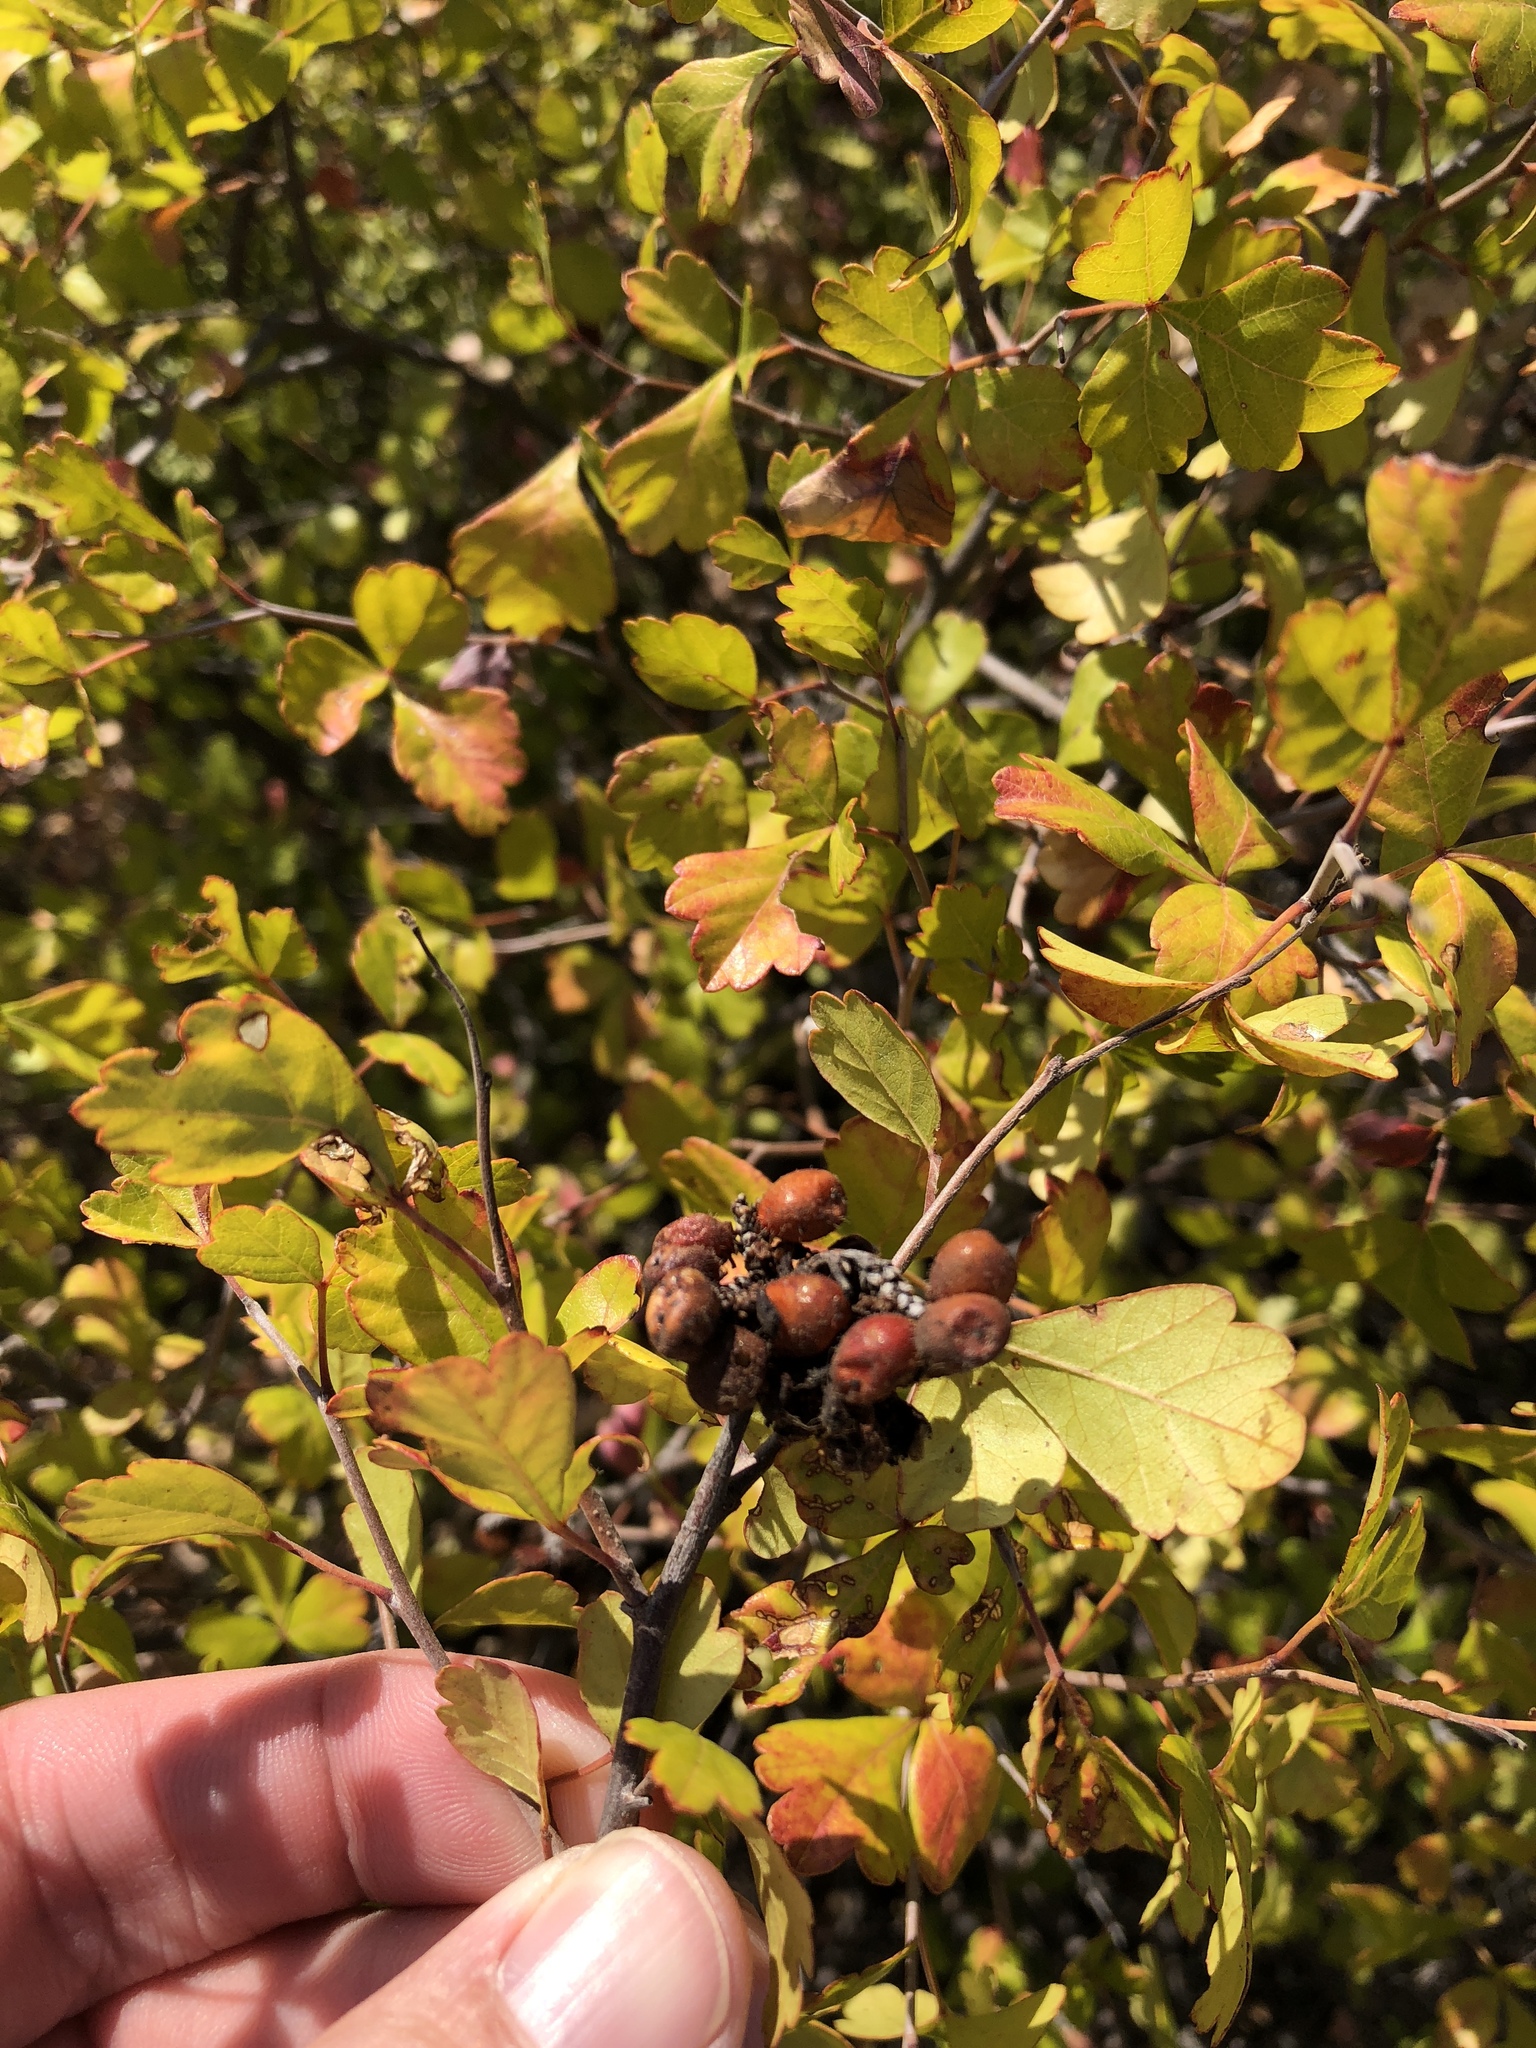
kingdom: Plantae
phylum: Tracheophyta
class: Magnoliopsida
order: Sapindales
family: Anacardiaceae
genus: Rhus
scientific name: Rhus aromatica
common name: Aromatic sumac
